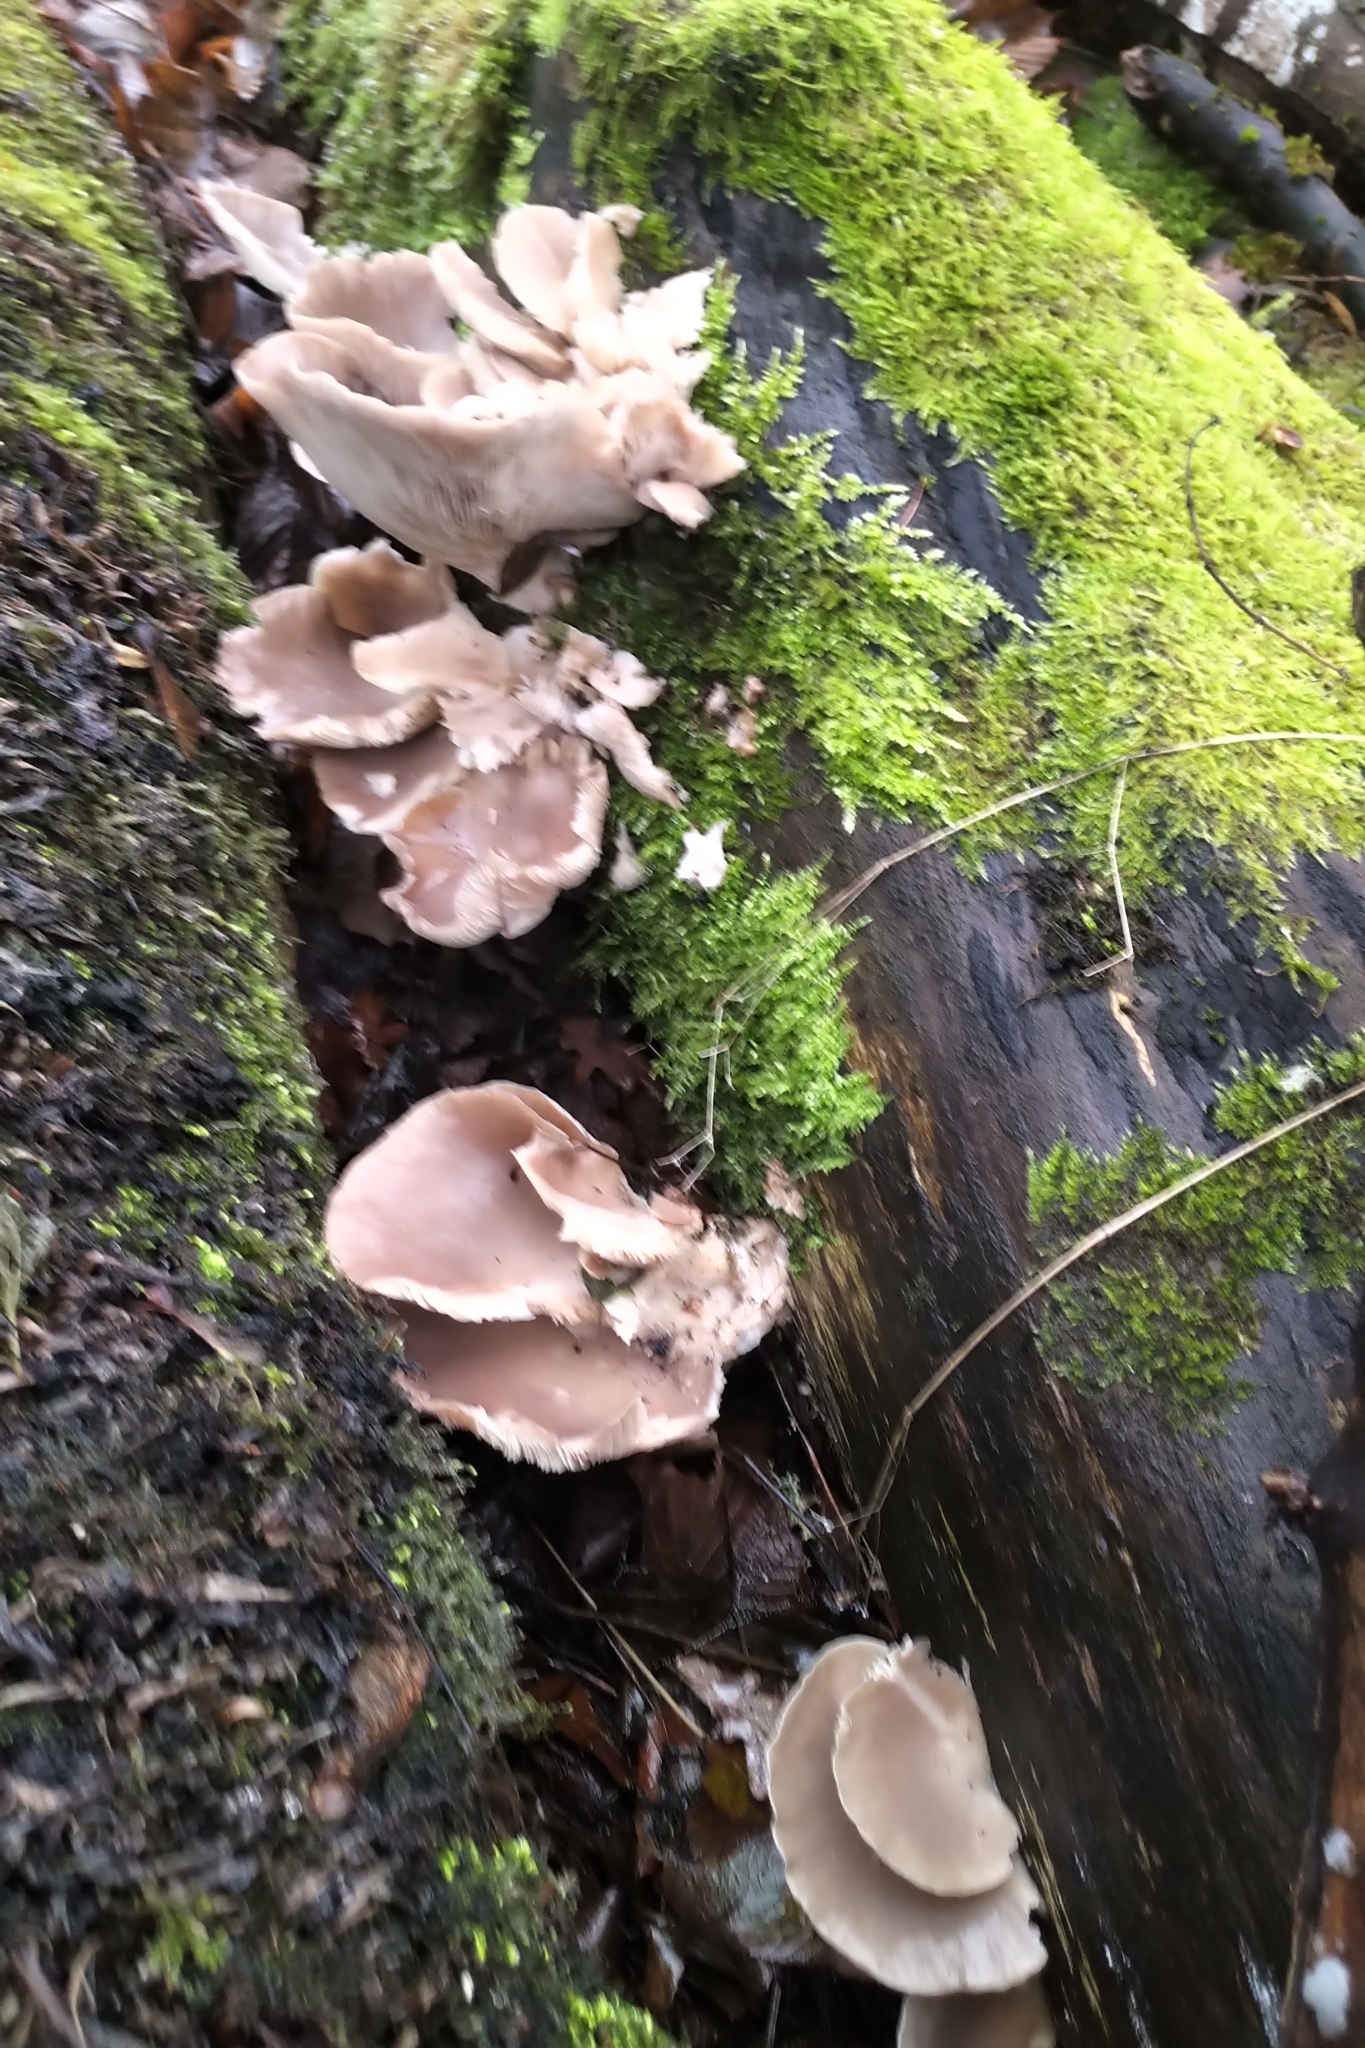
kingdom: Fungi
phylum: Basidiomycota
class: Agaricomycetes
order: Agaricales
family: Pleurotaceae
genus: Pleurotus
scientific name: Pleurotus ostreatus
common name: Oyster mushroom
